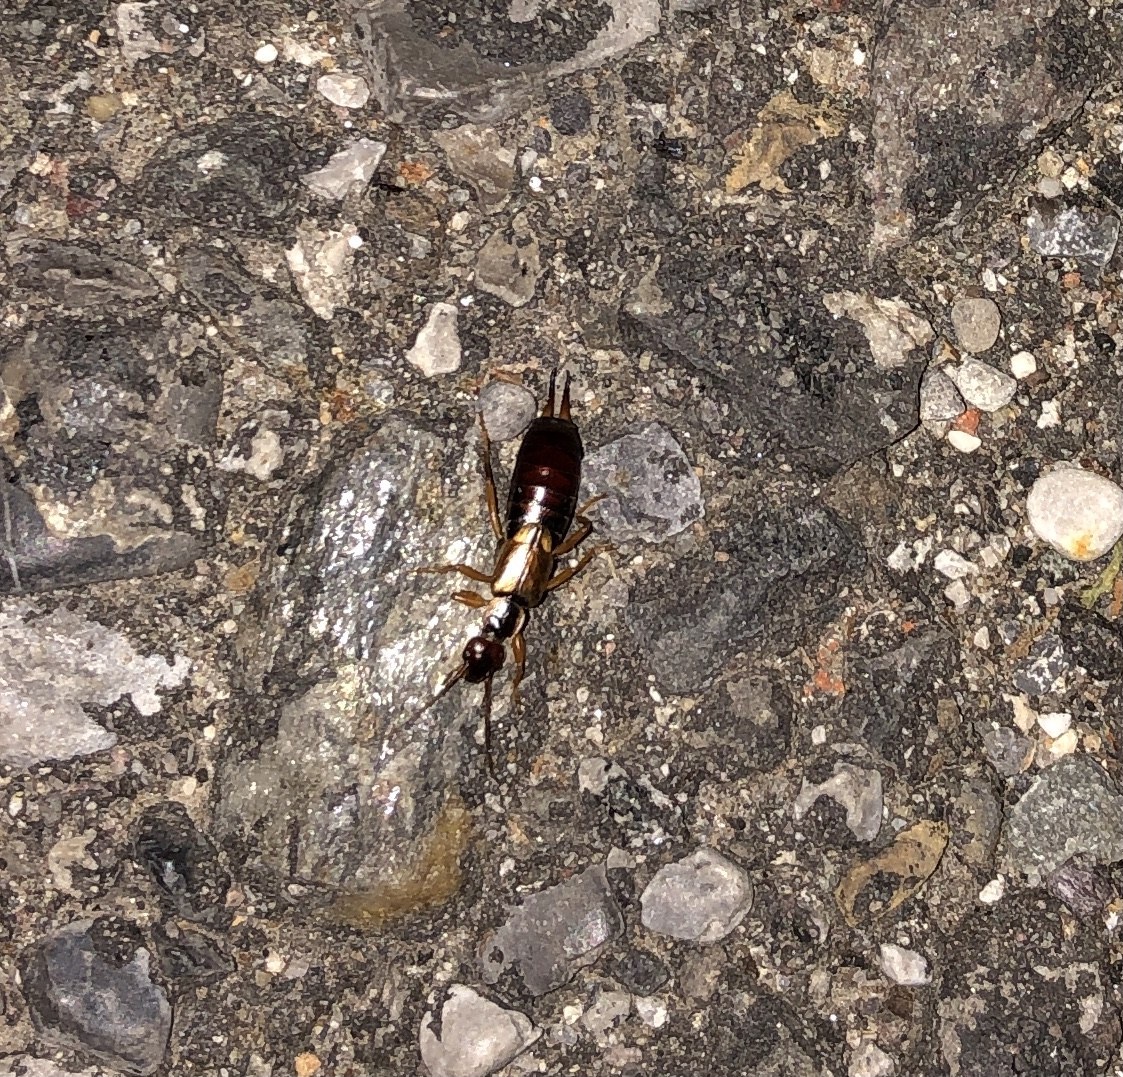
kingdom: Animalia
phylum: Arthropoda
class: Insecta
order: Dermaptera
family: Forficulidae
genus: Forficula
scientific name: Forficula
